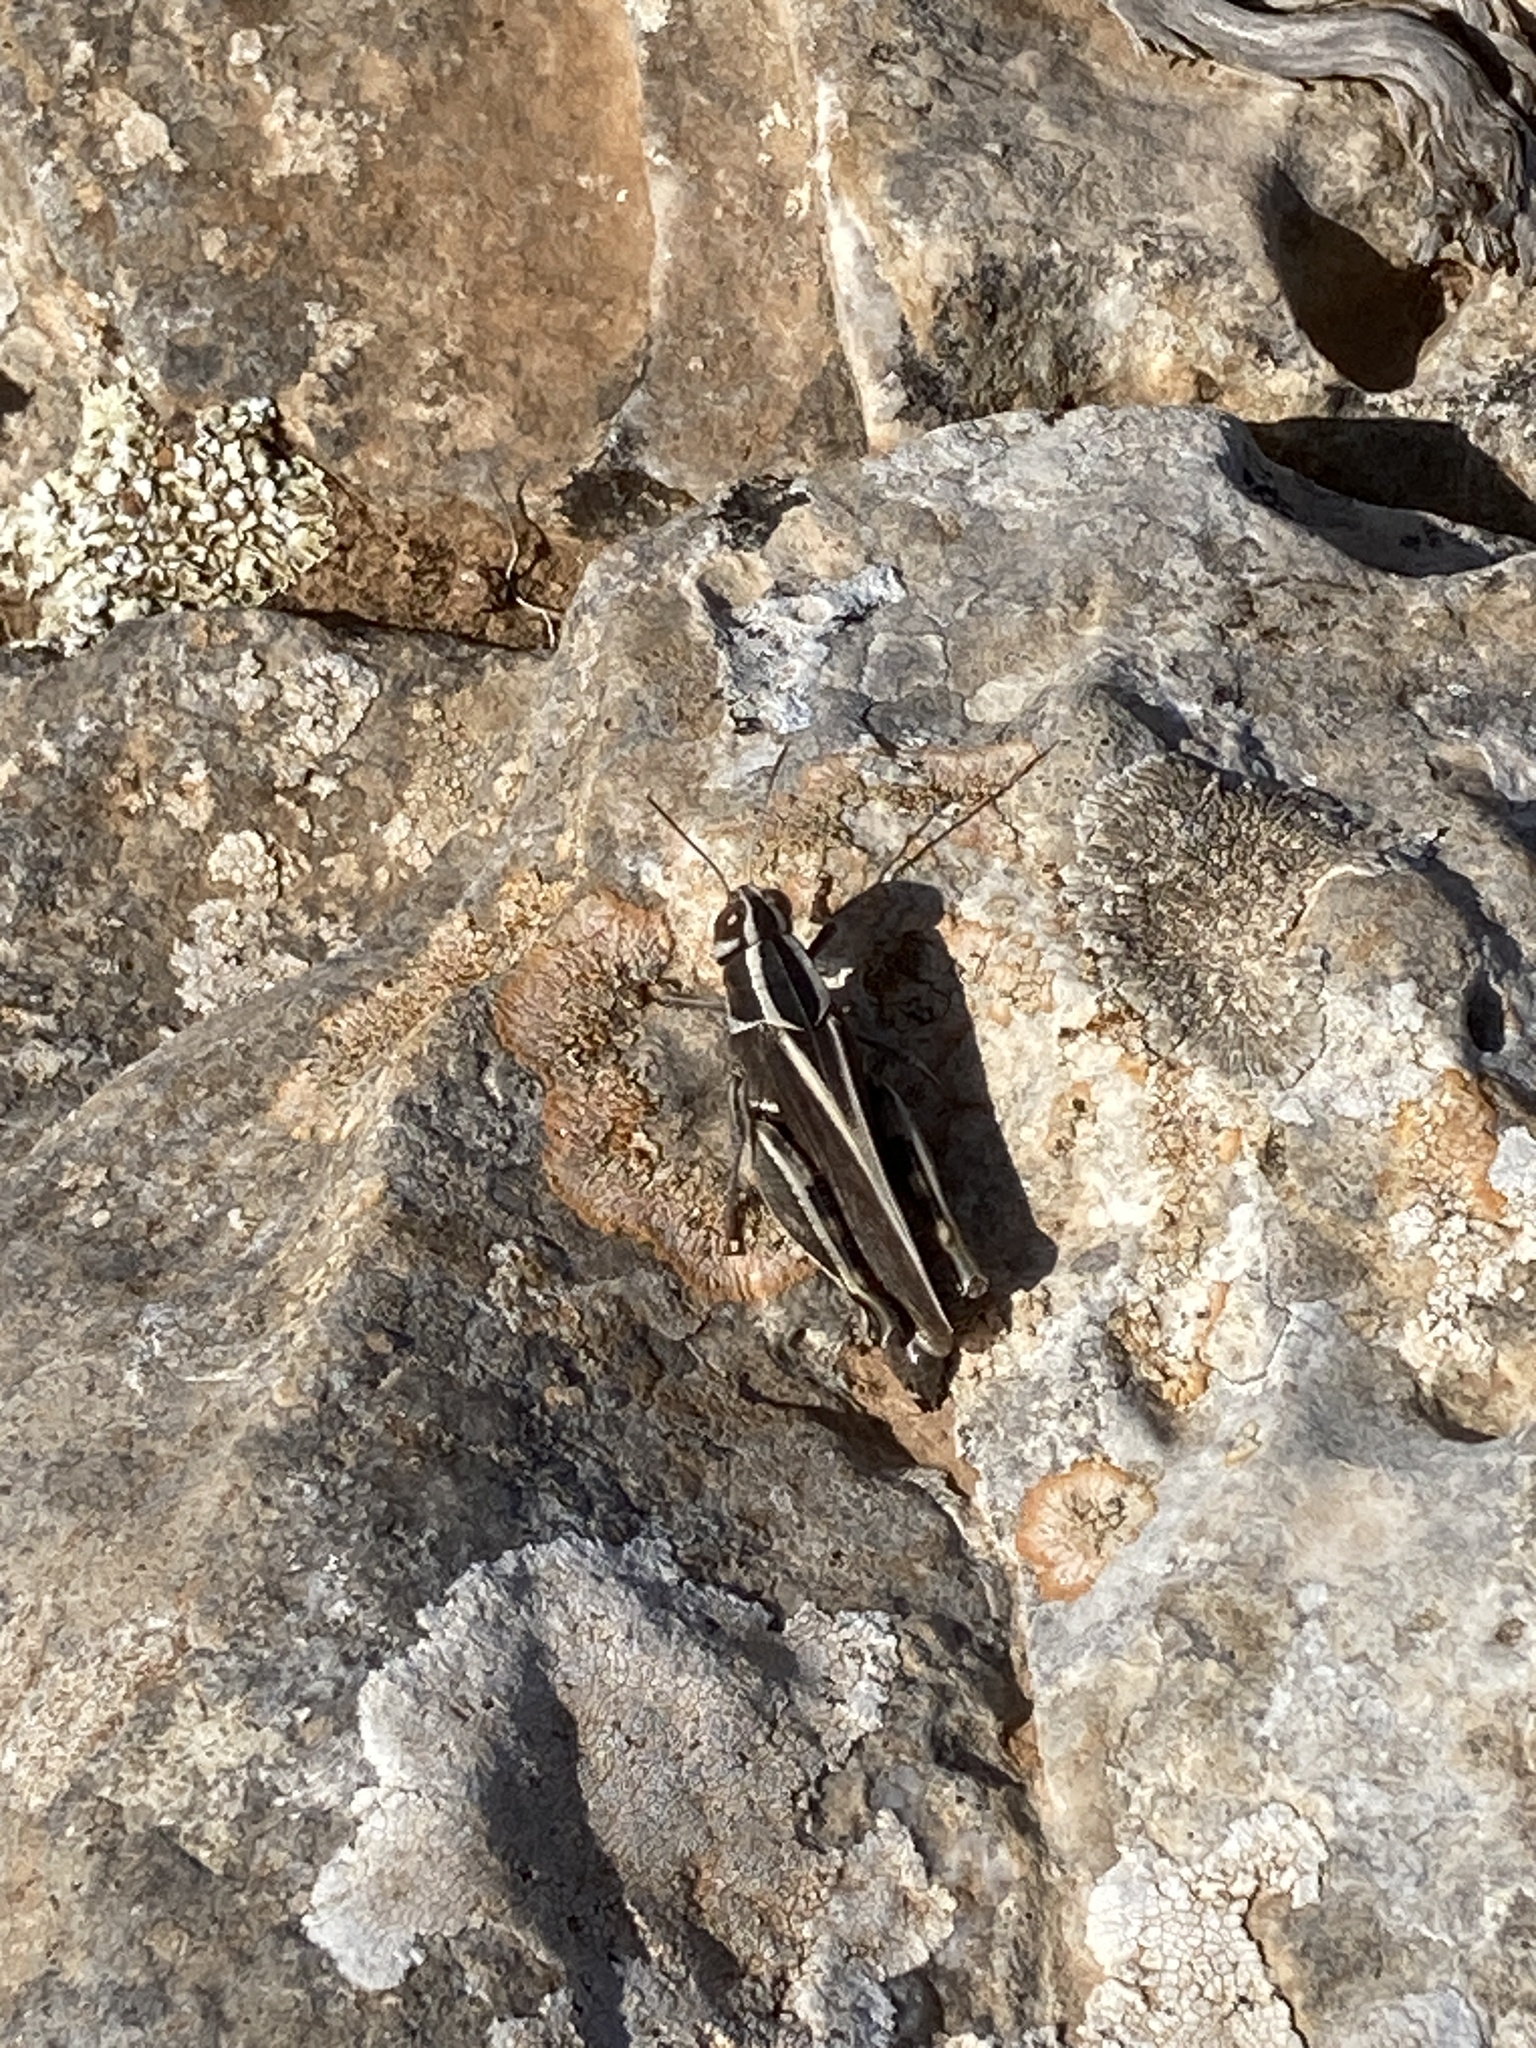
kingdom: Animalia
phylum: Arthropoda
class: Insecta
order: Orthoptera
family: Acrididae
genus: Calliptamus
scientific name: Calliptamus
